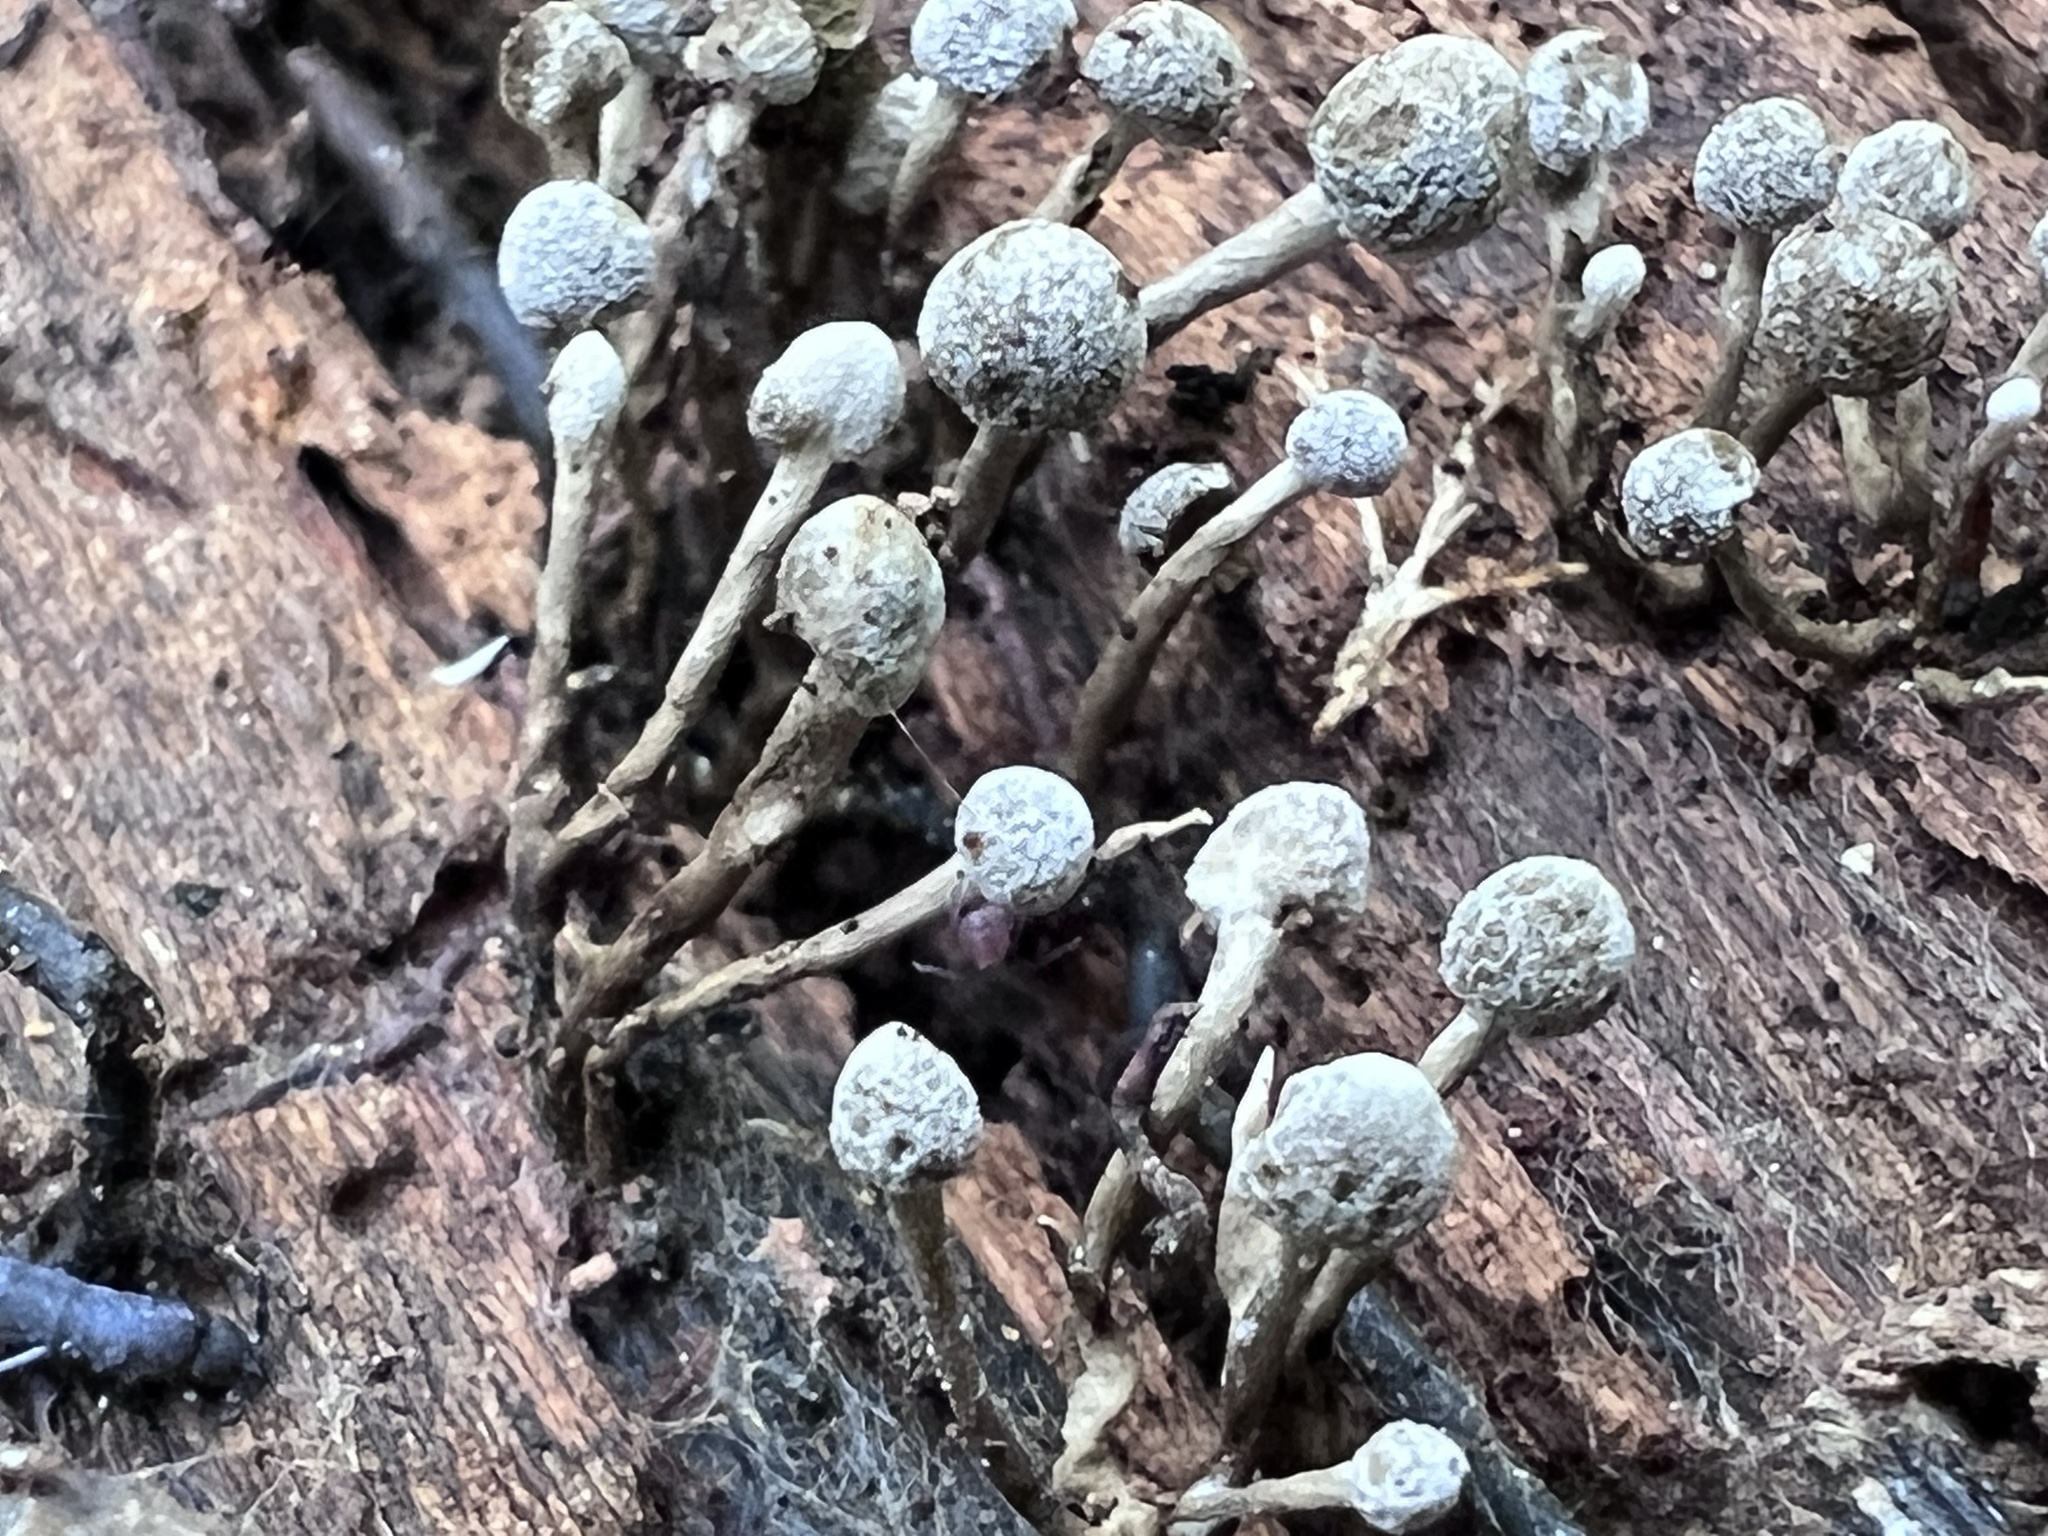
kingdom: Fungi
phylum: Basidiomycota
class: Atractiellomycetes
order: Atractiellales
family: Phleogenaceae
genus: Phleogena
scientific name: Phleogena faginea
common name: Fenugreek stalkball
